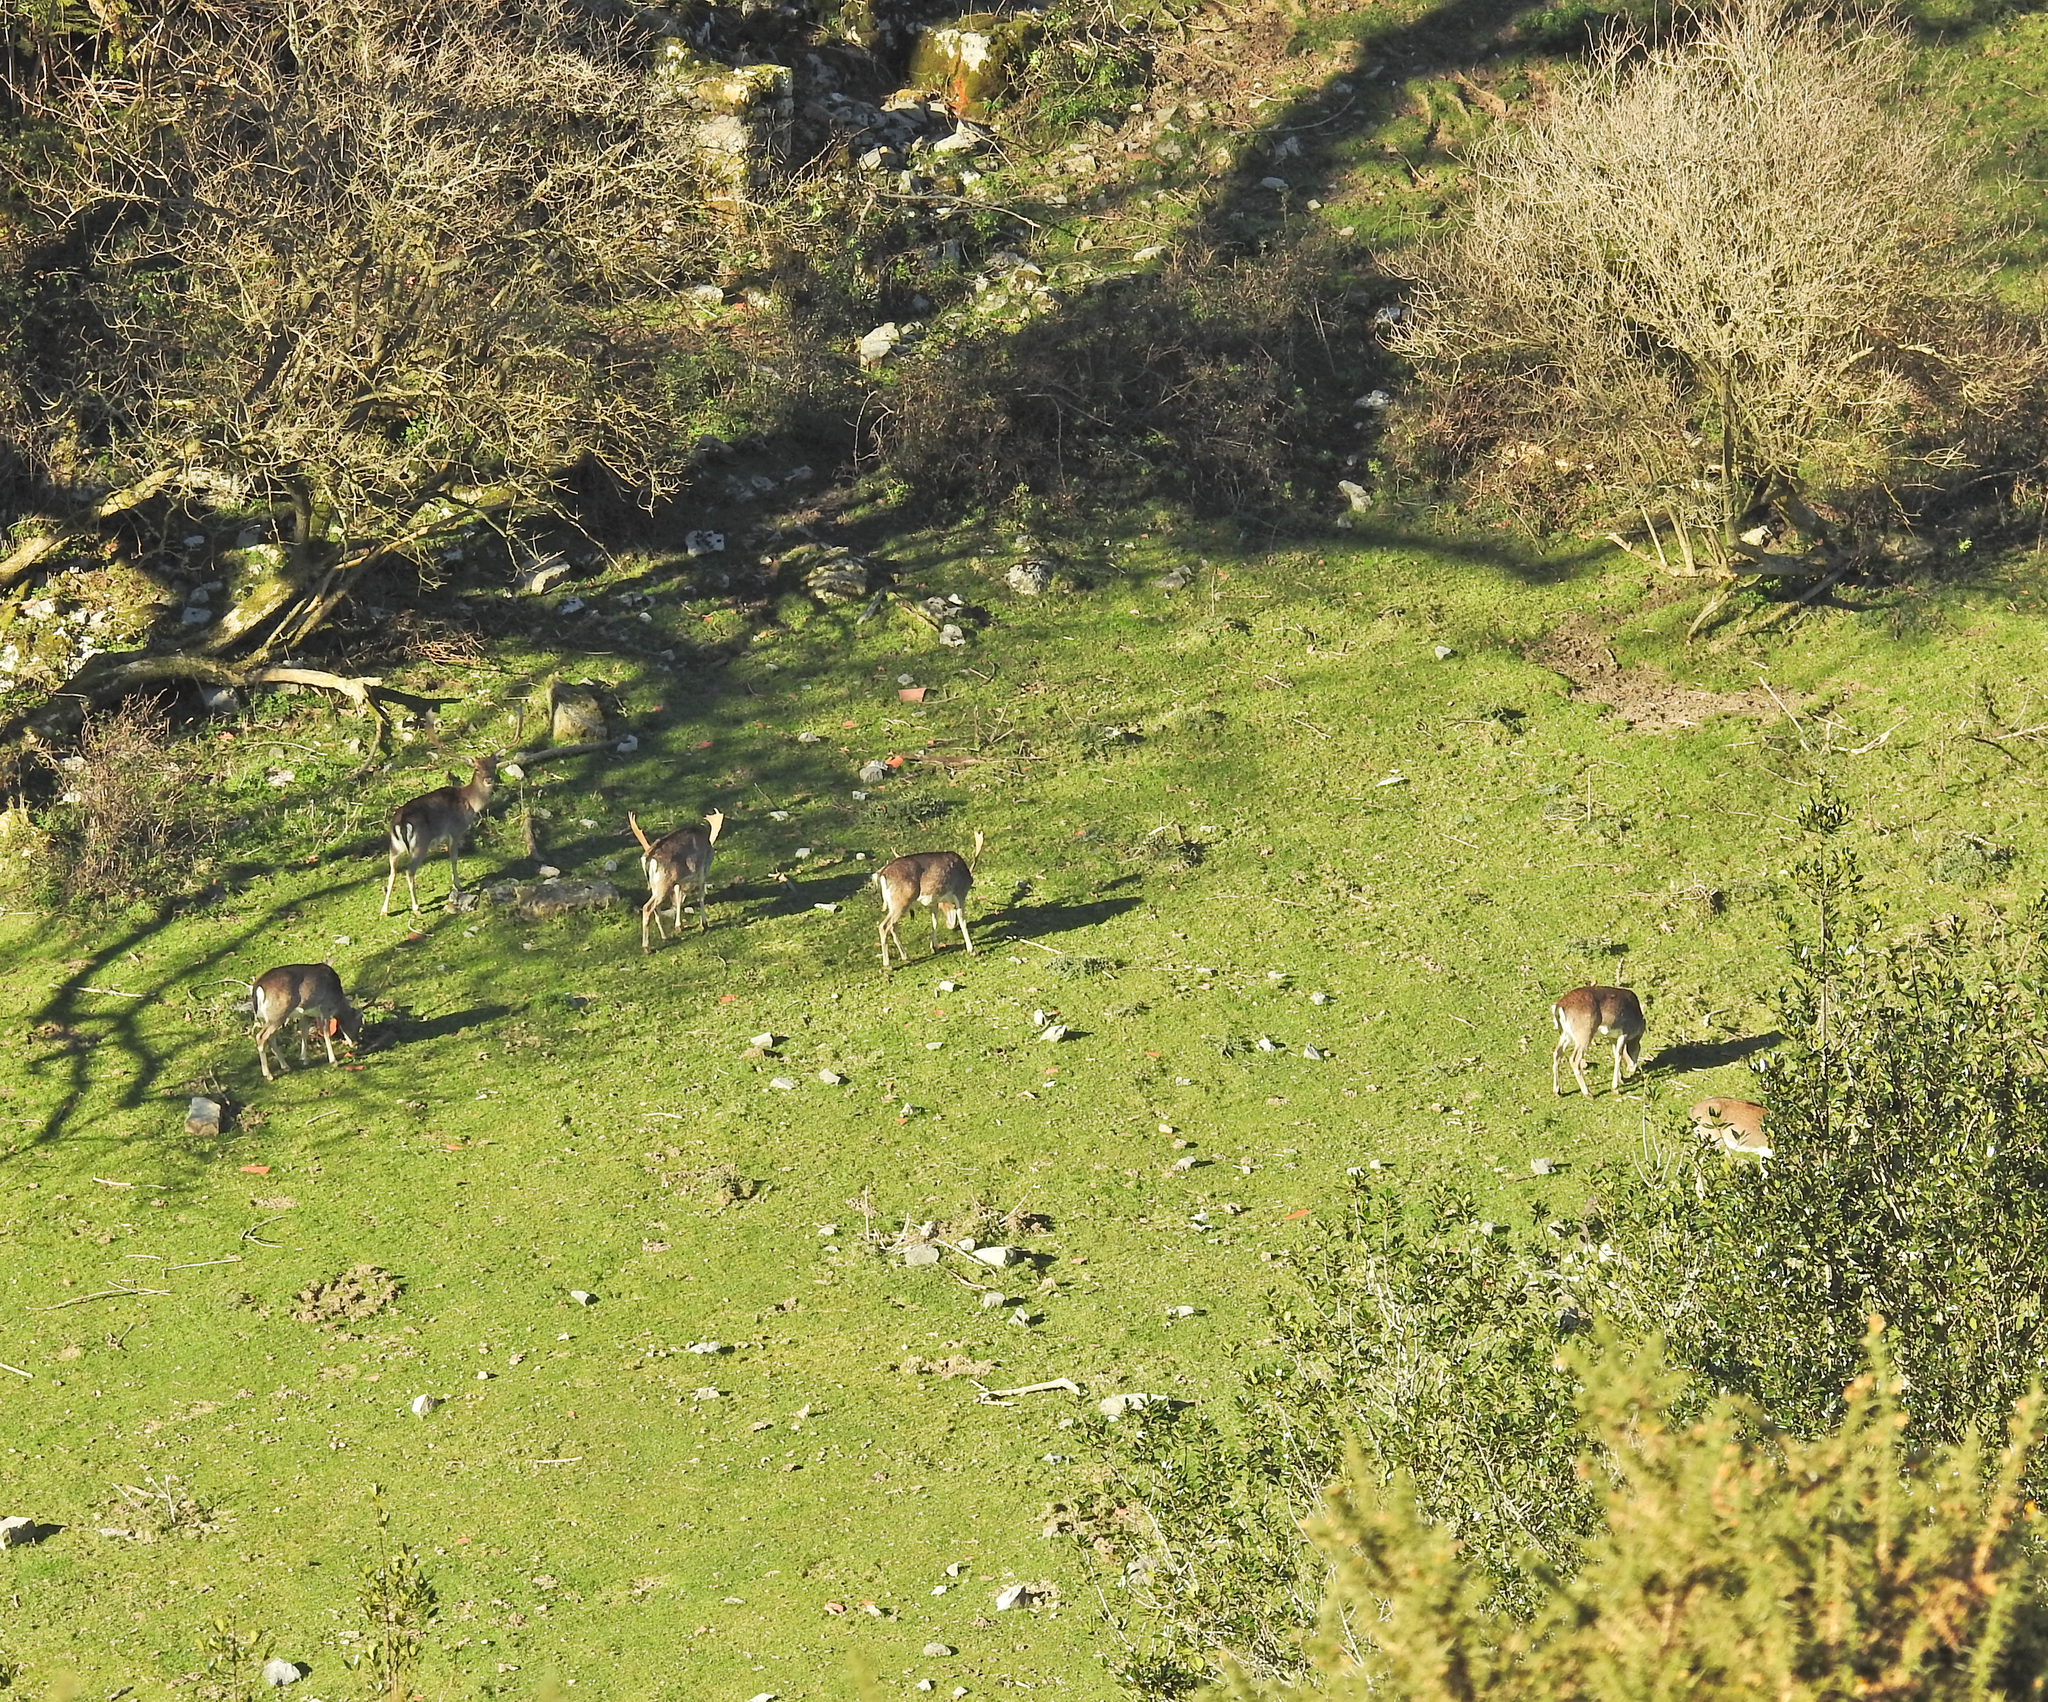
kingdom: Animalia
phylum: Chordata
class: Mammalia
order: Artiodactyla
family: Cervidae
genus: Dama
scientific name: Dama dama
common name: Fallow deer
